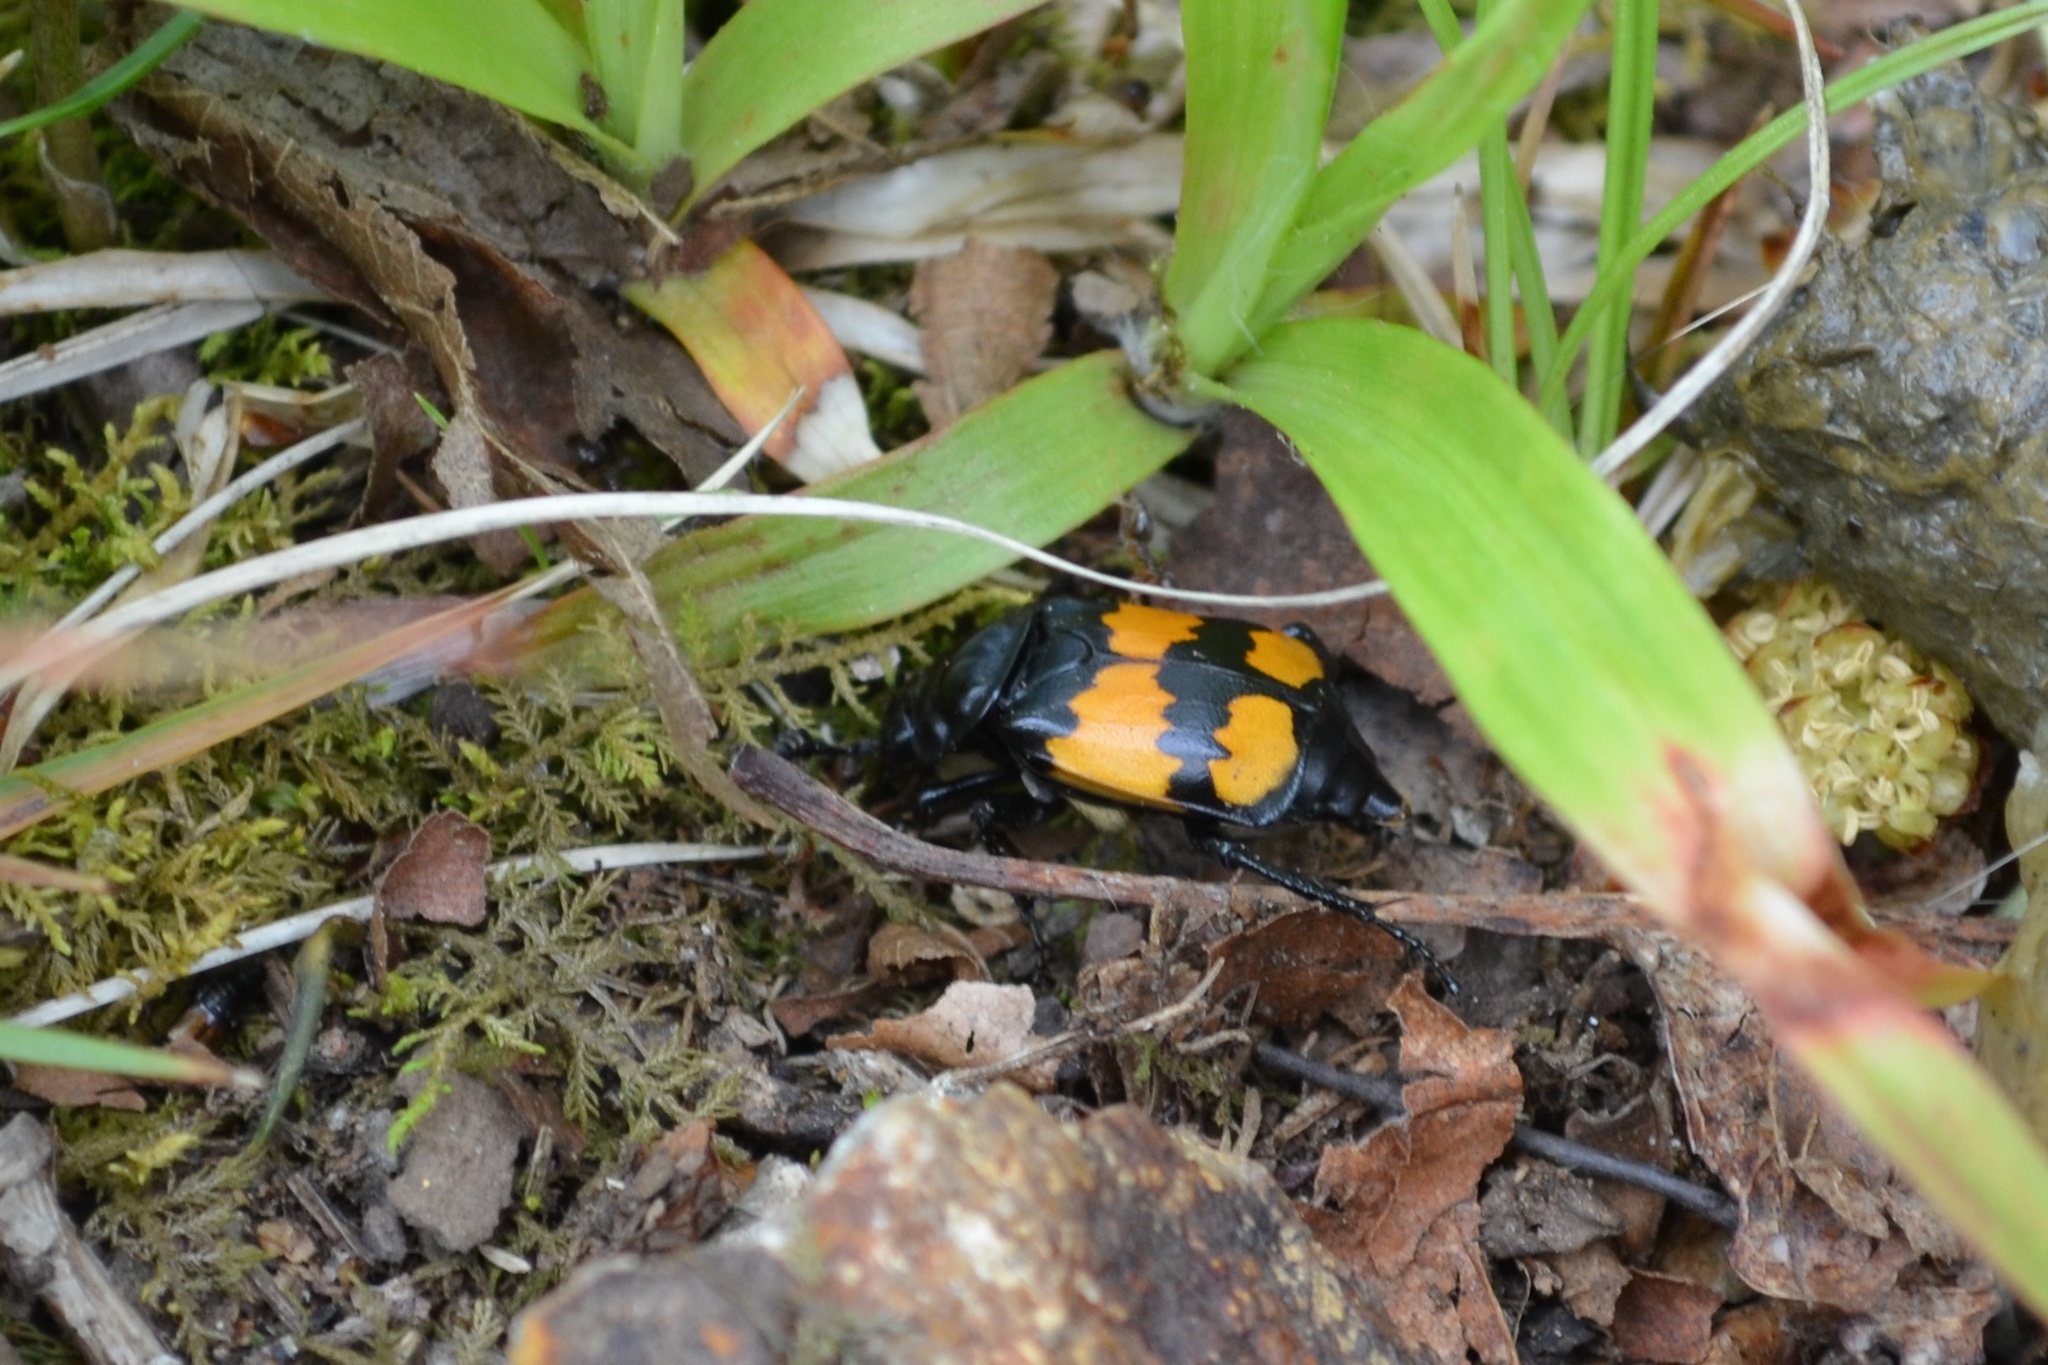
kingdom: Animalia
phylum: Arthropoda
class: Insecta
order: Coleoptera
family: Staphylinidae
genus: Nicrophorus
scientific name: Nicrophorus defodiens
